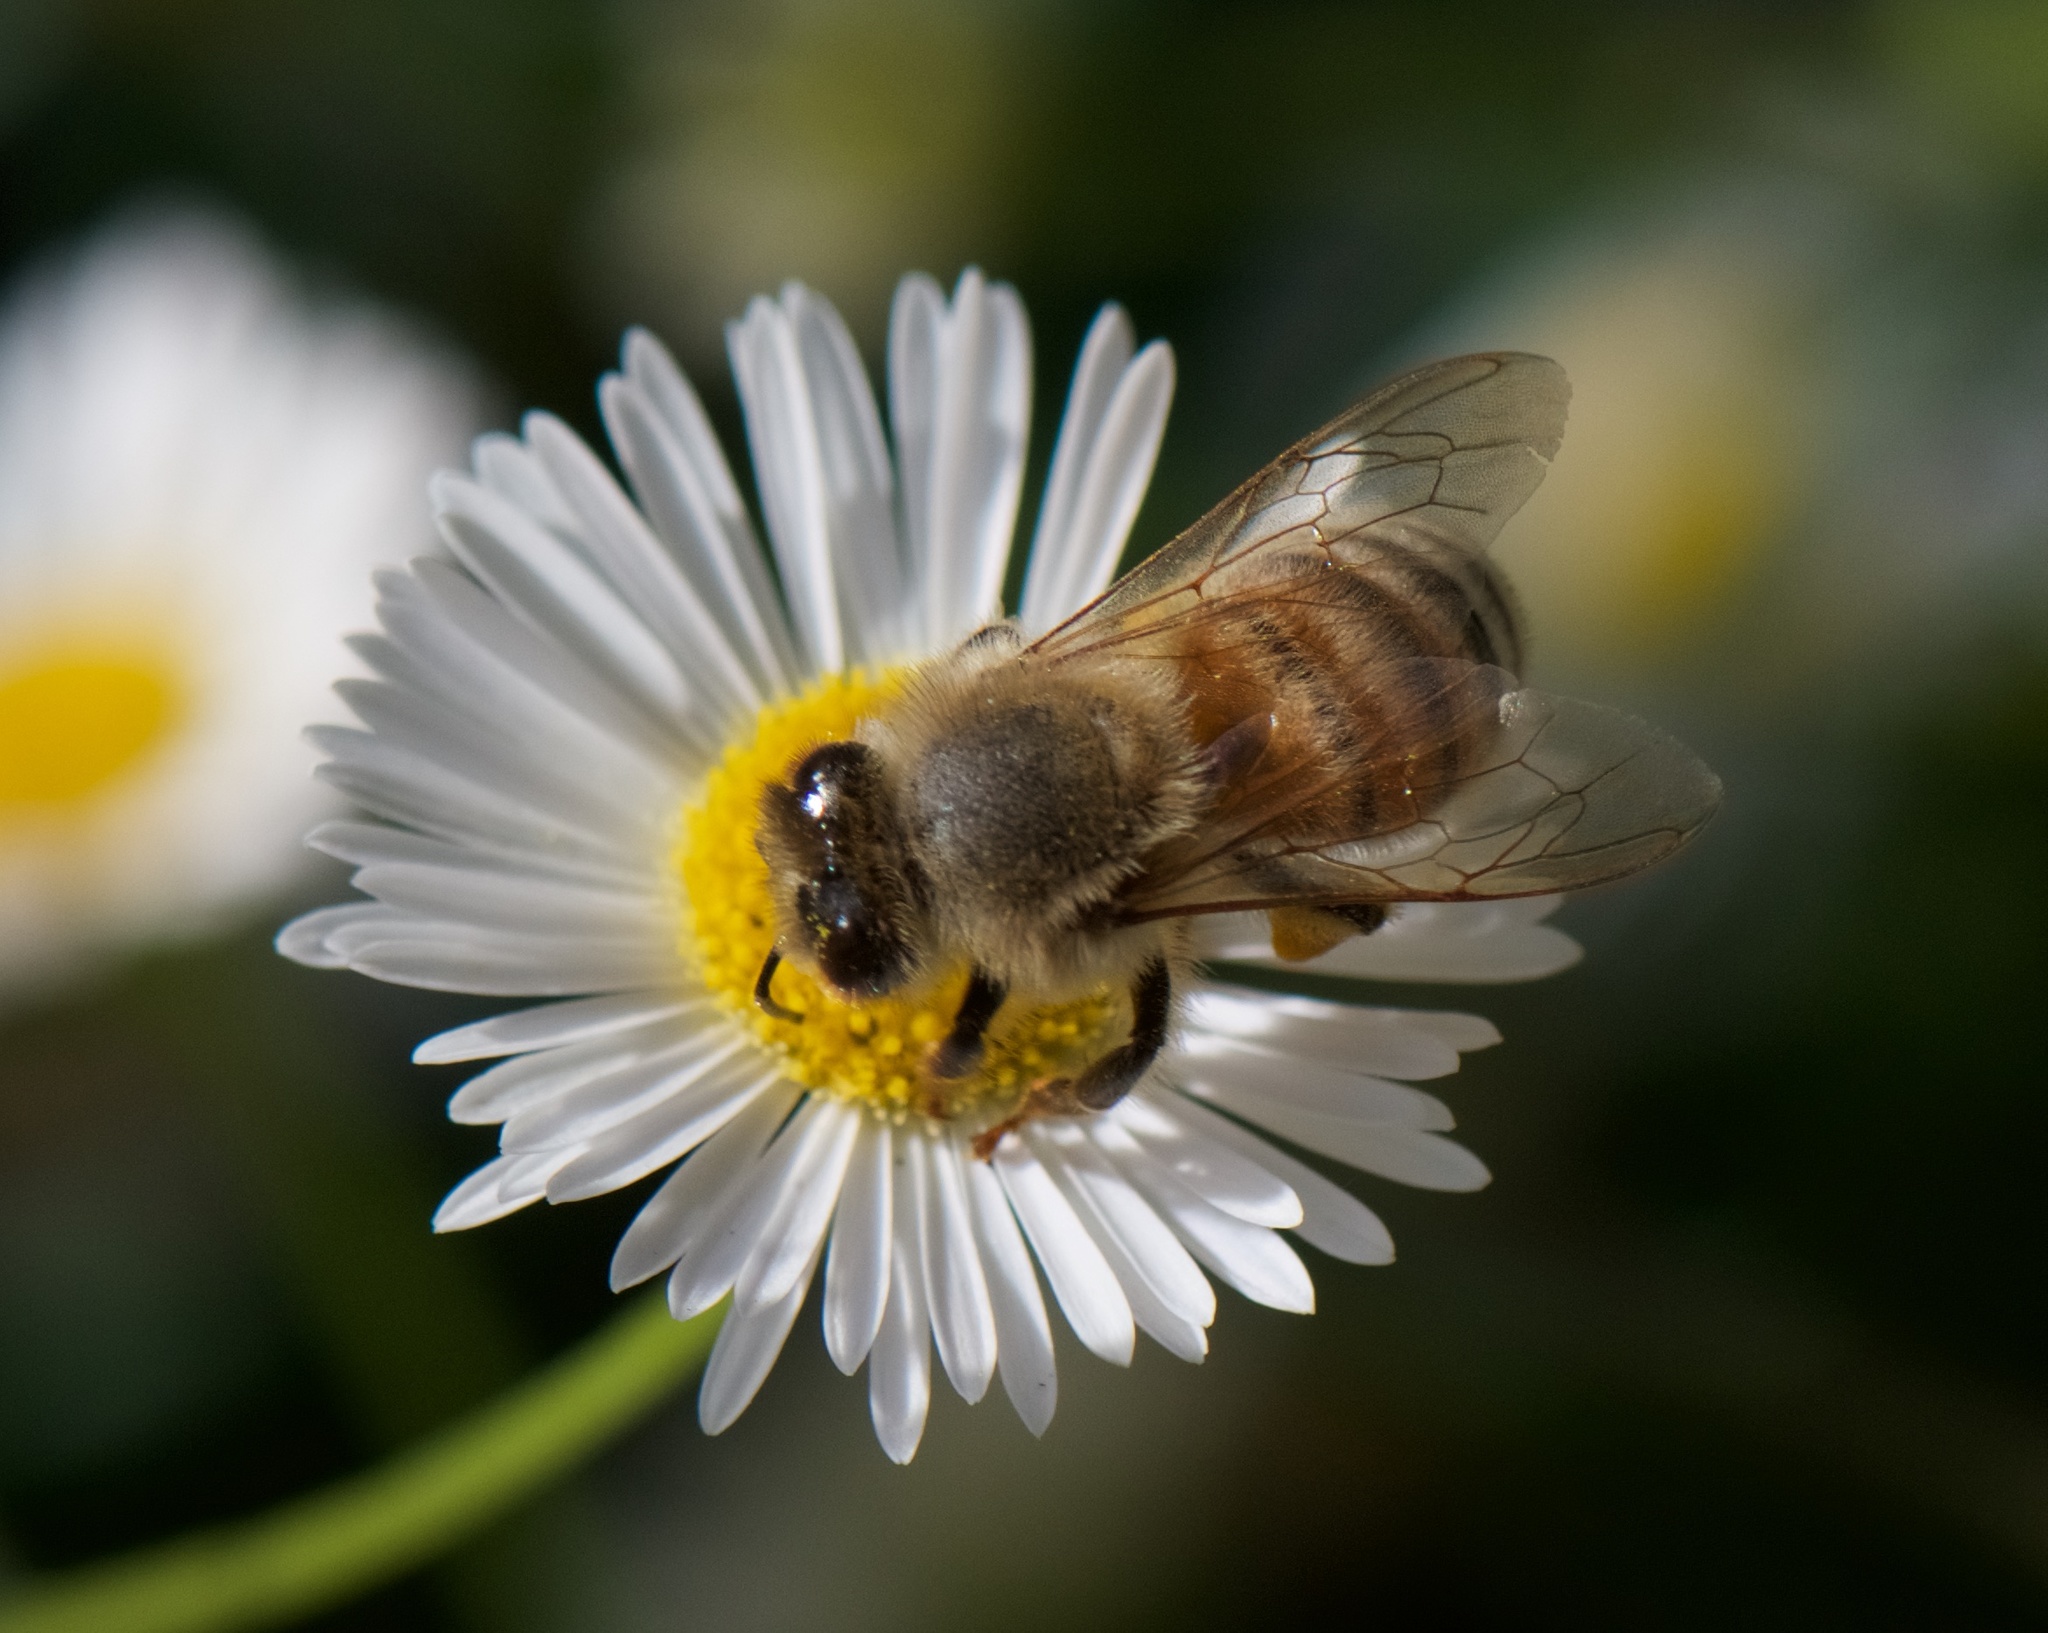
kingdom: Animalia
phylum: Arthropoda
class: Insecta
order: Hymenoptera
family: Apidae
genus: Apis
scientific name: Apis mellifera
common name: Honey bee
